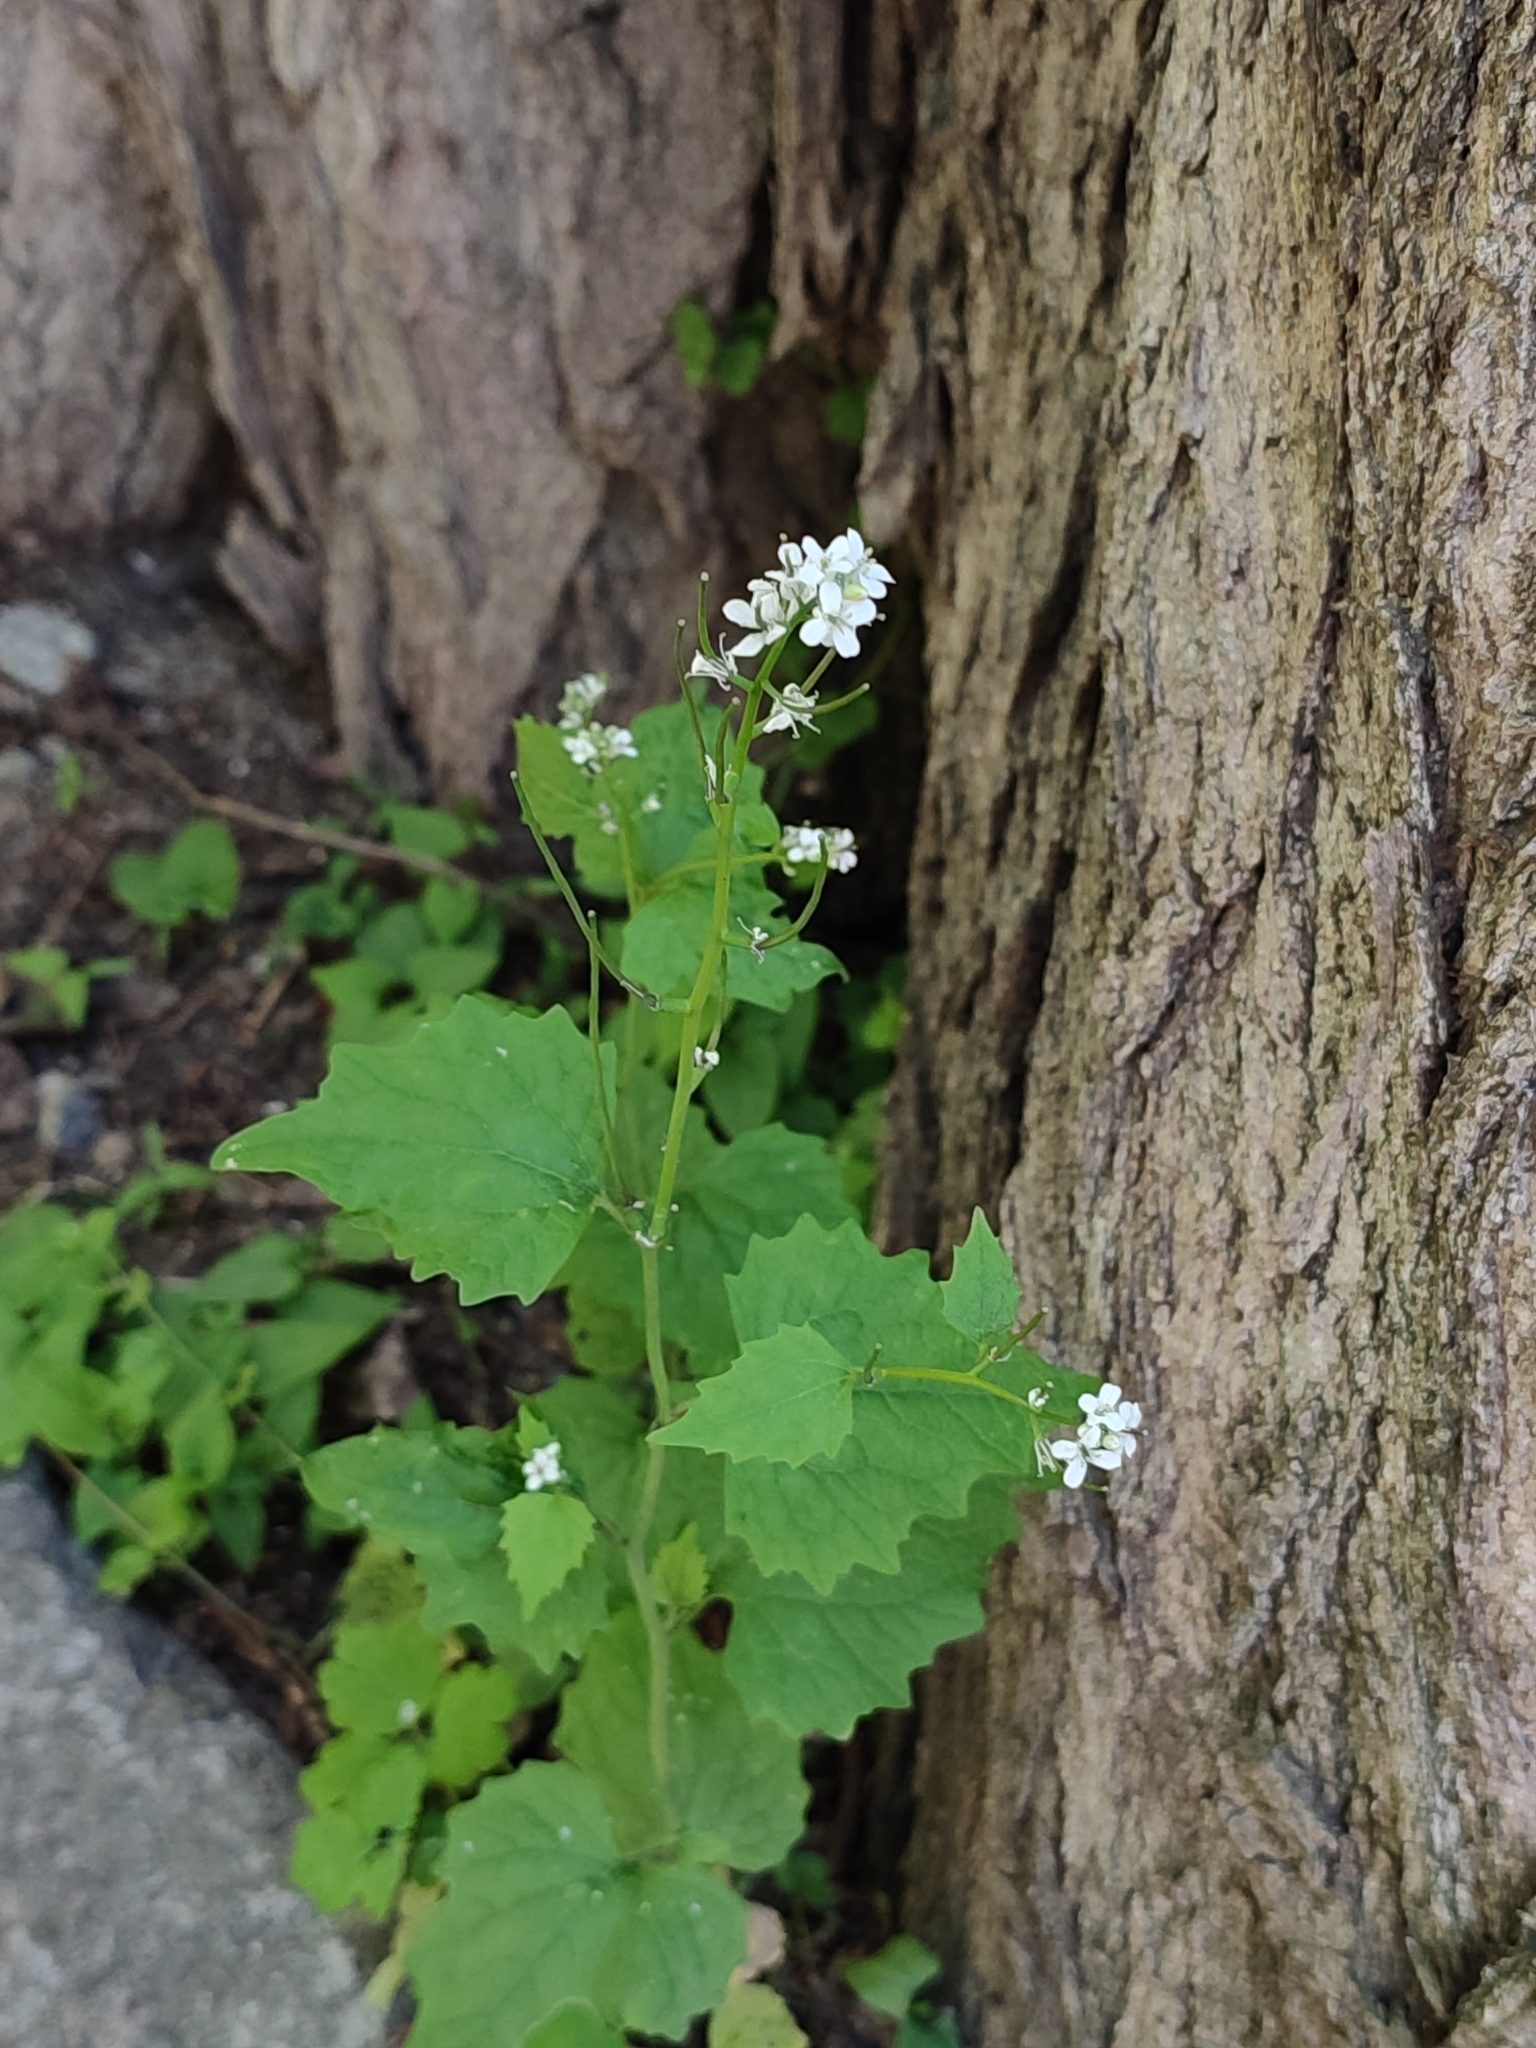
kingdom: Plantae
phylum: Tracheophyta
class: Magnoliopsida
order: Brassicales
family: Brassicaceae
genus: Alliaria
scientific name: Alliaria petiolata
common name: Garlic mustard
